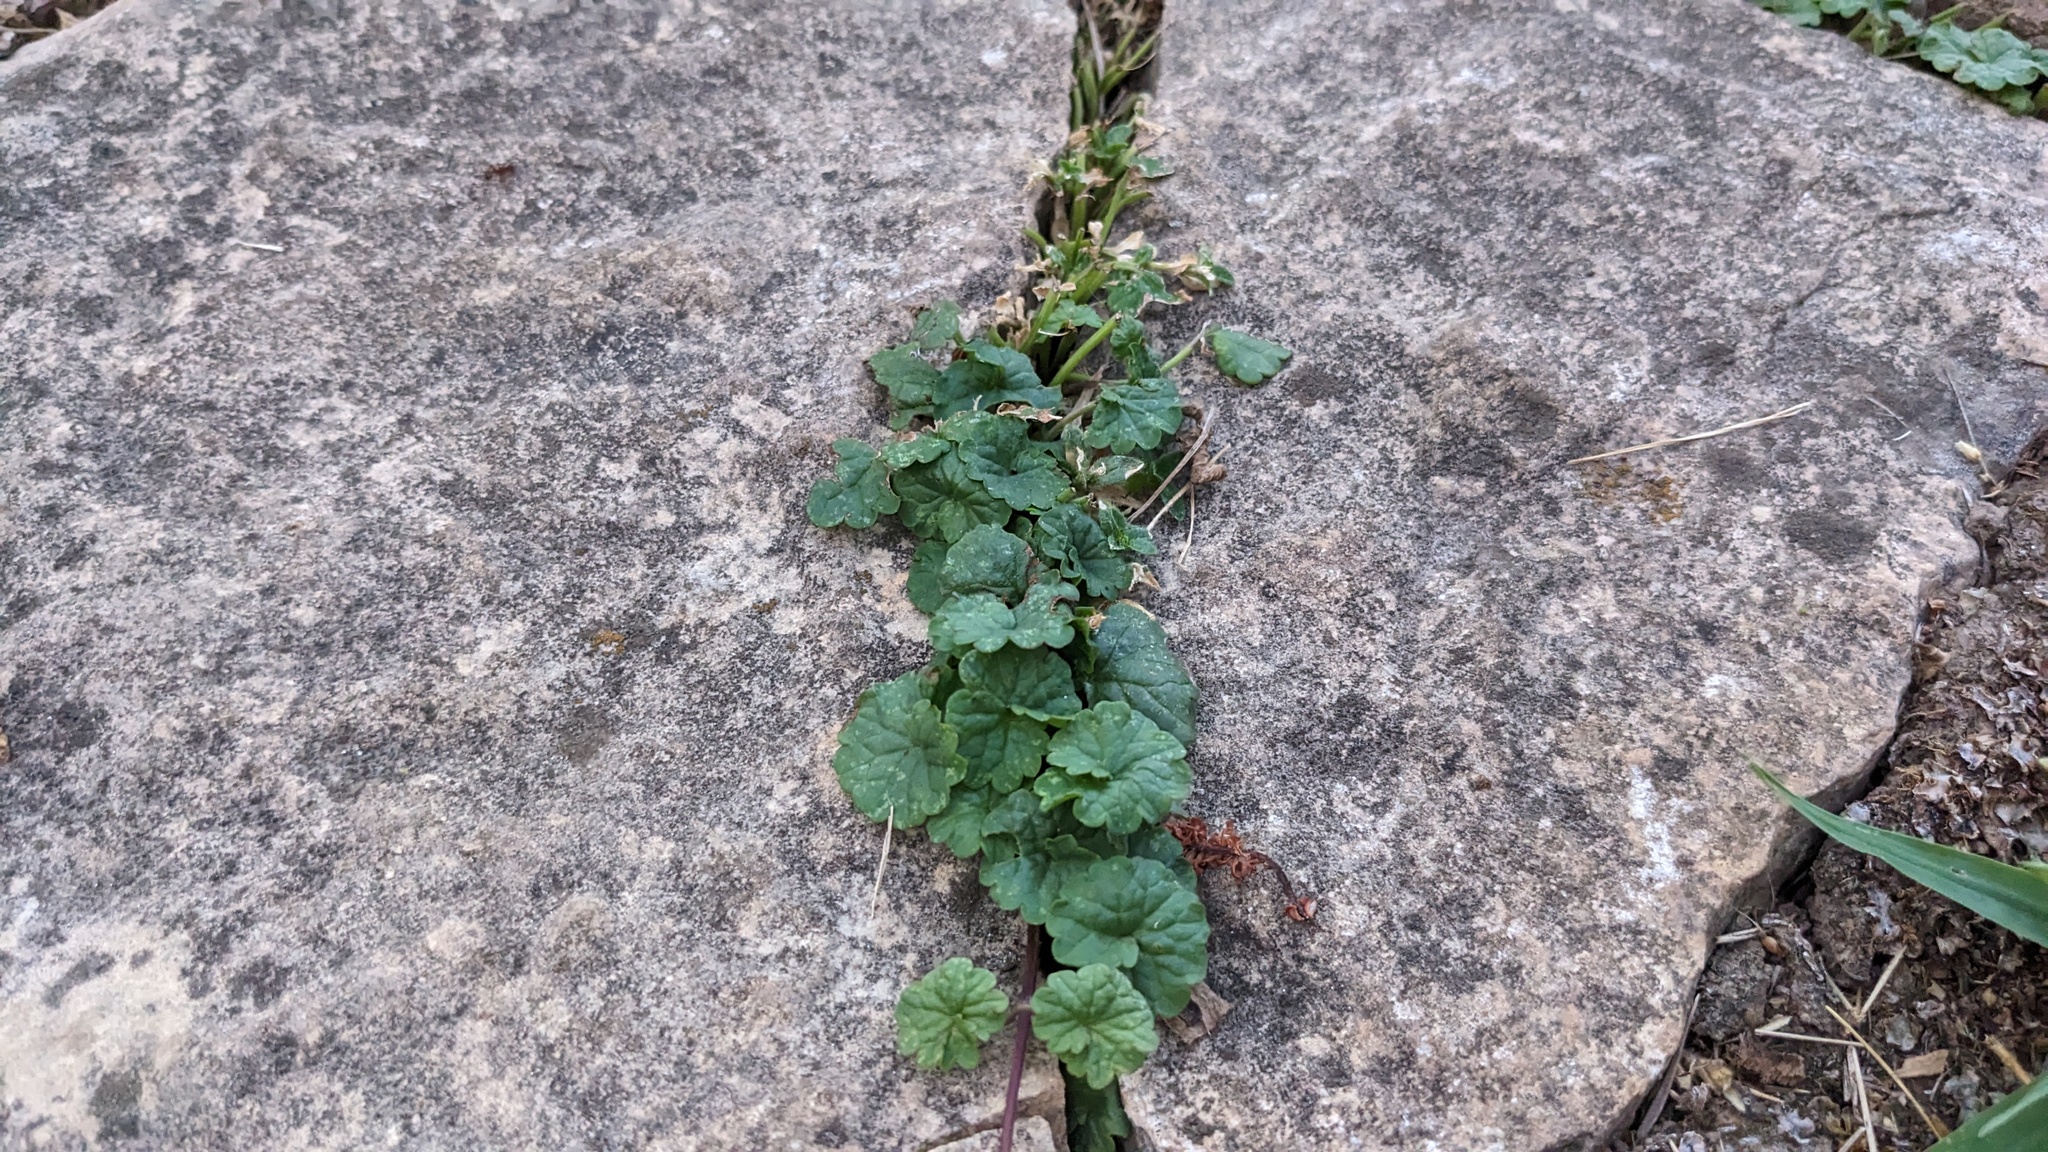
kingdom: Plantae
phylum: Tracheophyta
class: Magnoliopsida
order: Lamiales
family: Lamiaceae
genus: Glechoma
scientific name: Glechoma hederacea
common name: Ground ivy
